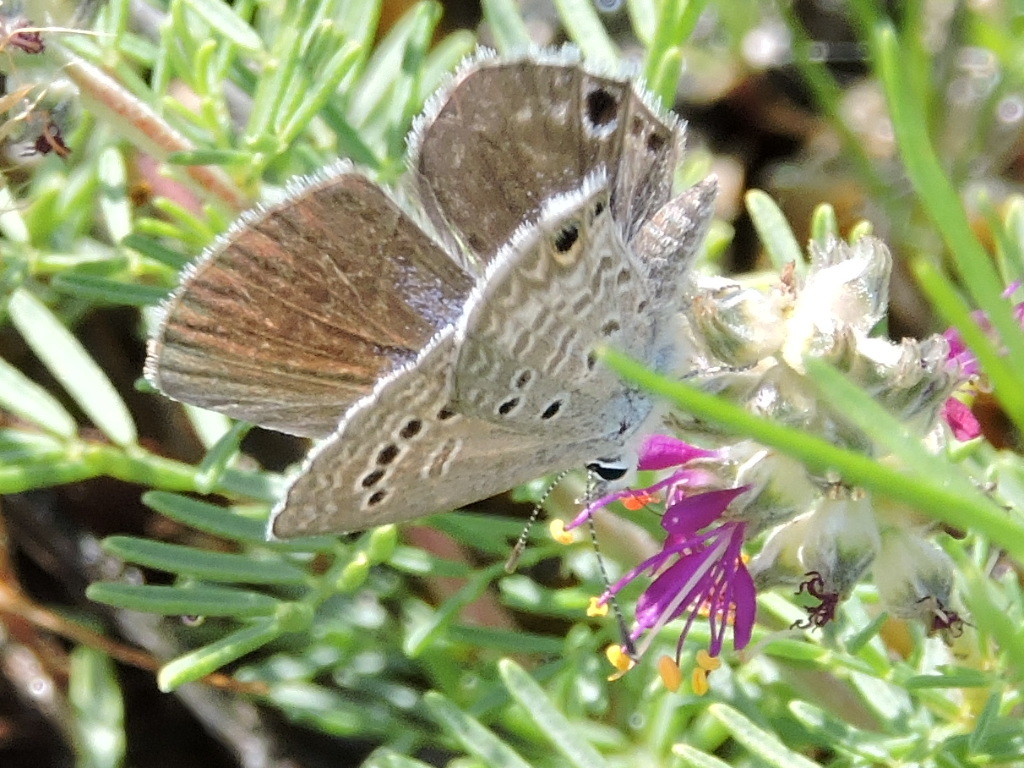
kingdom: Animalia
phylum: Arthropoda
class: Insecta
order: Lepidoptera
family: Lycaenidae
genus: Echinargus
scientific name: Echinargus isola
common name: Reakirt's blue
